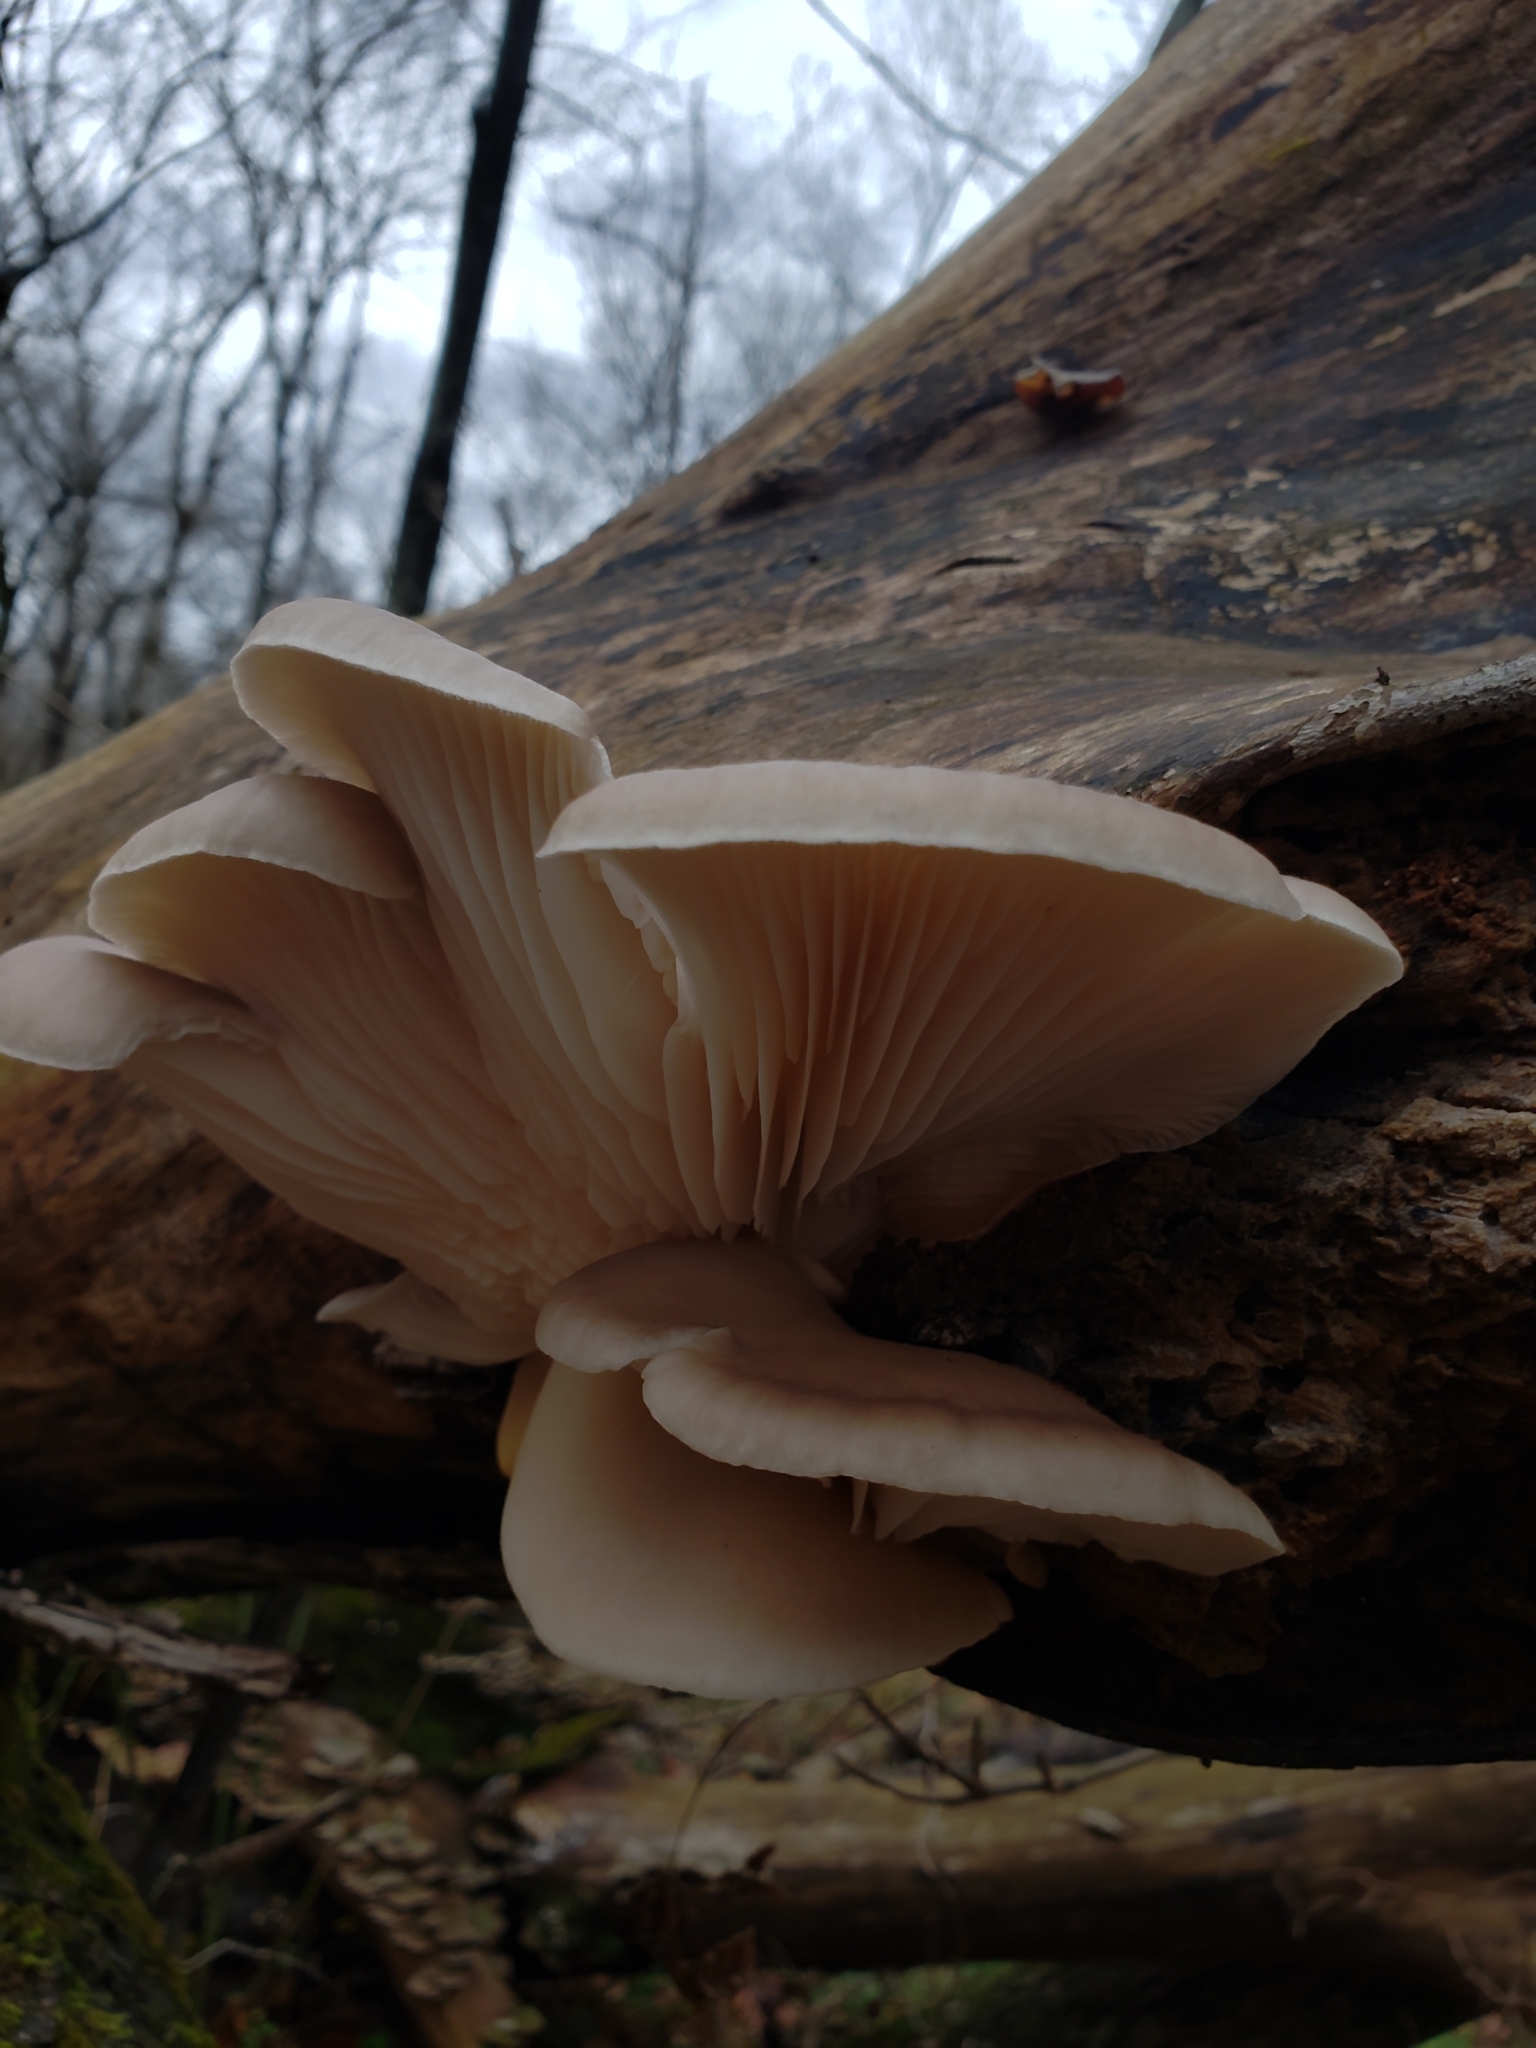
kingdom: Fungi
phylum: Basidiomycota
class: Agaricomycetes
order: Agaricales
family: Pleurotaceae
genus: Pleurotus
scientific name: Pleurotus ostreatus
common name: Oyster mushroom
